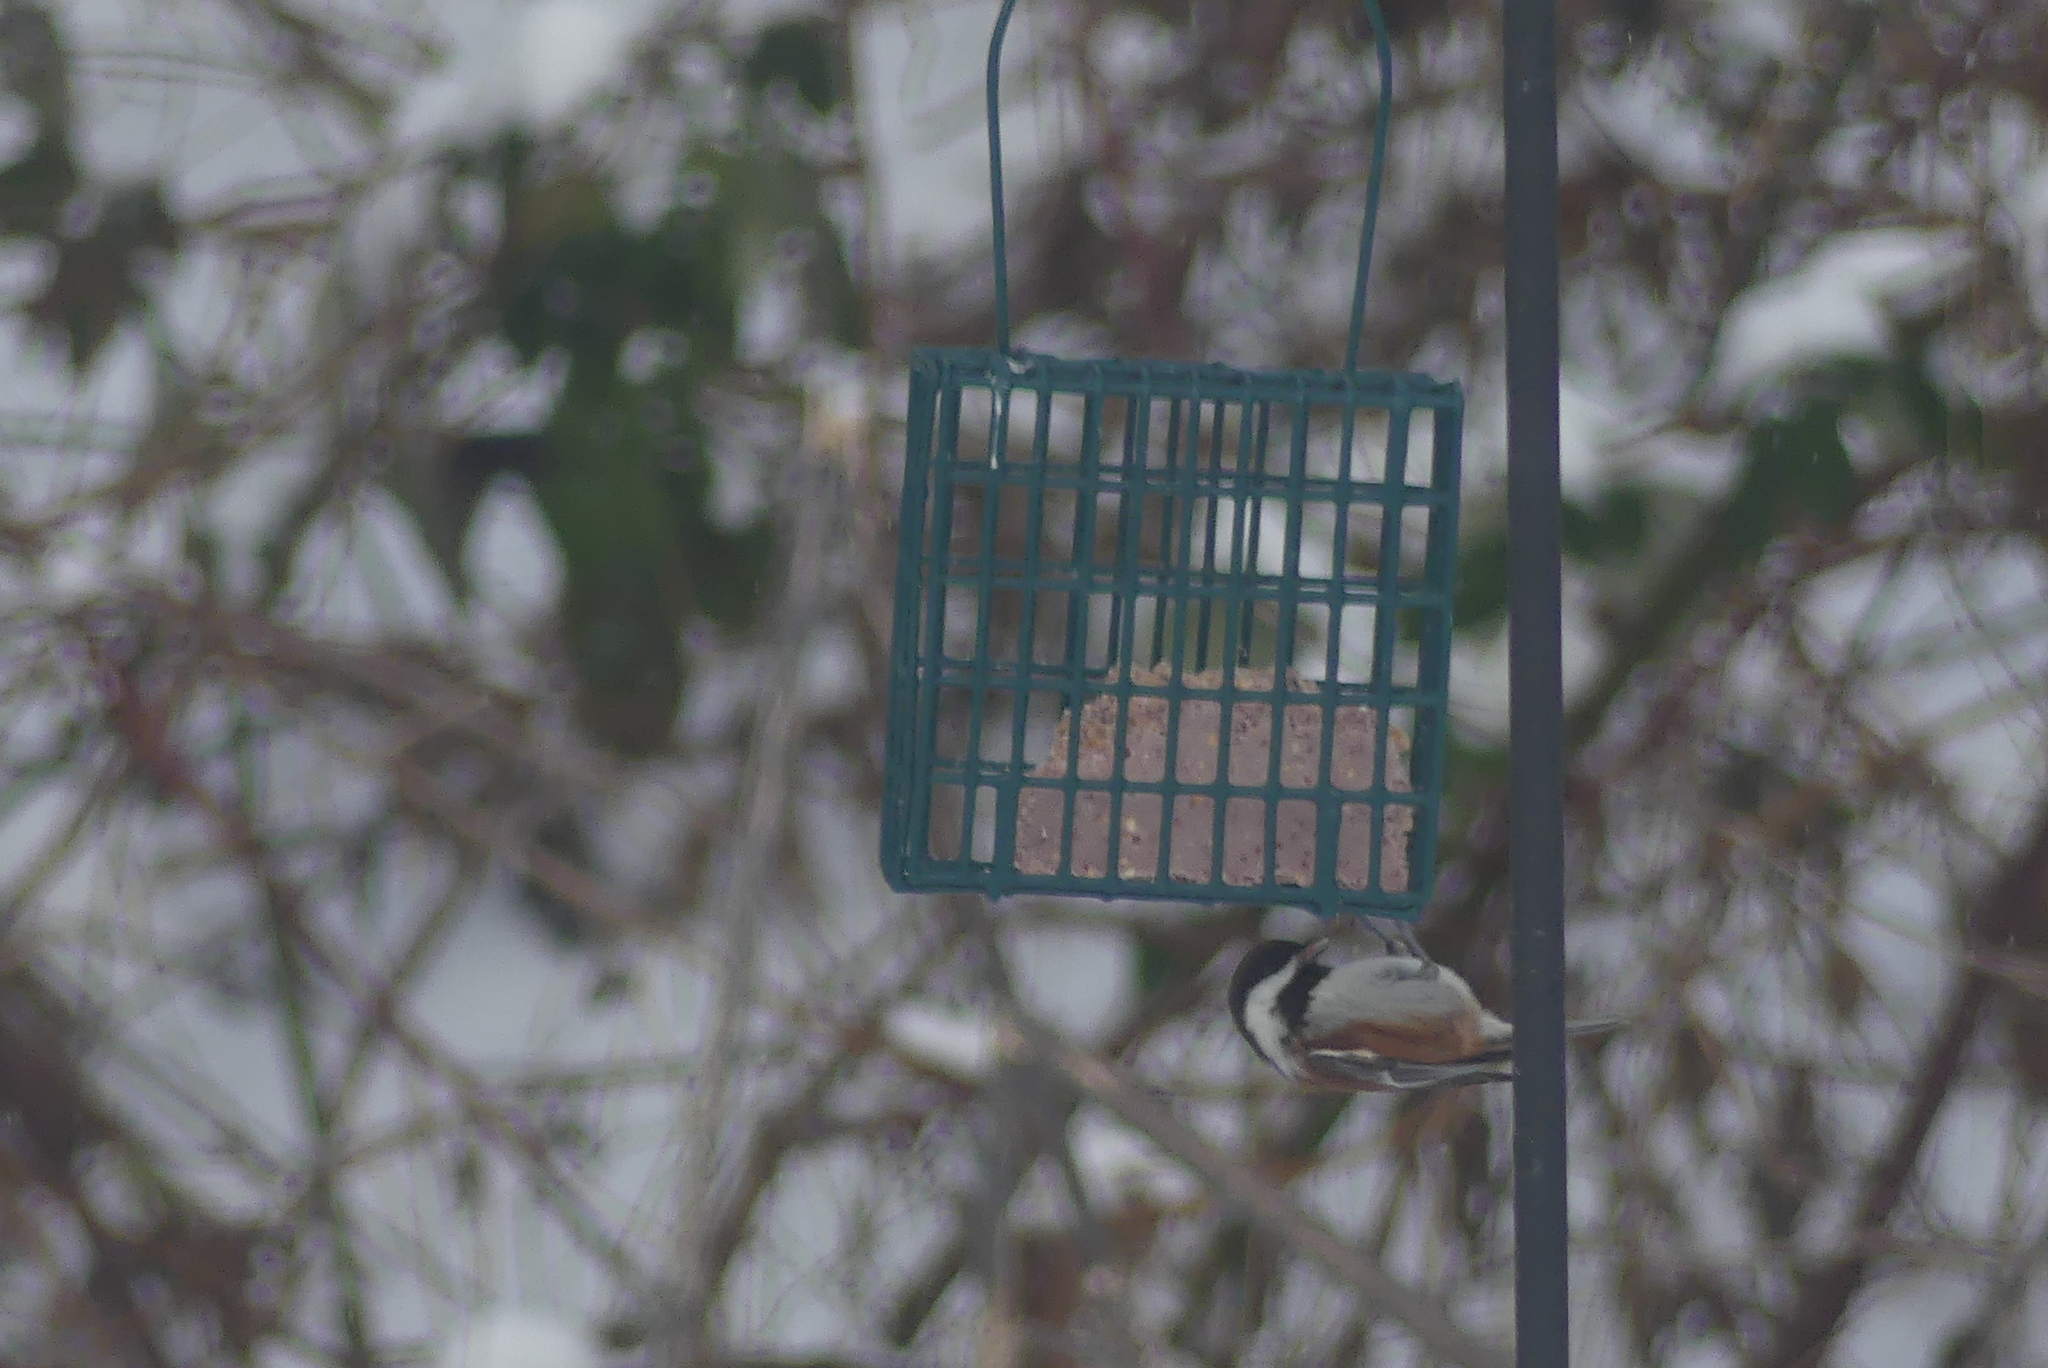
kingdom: Animalia
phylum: Chordata
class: Aves
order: Passeriformes
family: Paridae
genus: Poecile
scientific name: Poecile rufescens
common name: Chestnut-backed chickadee
